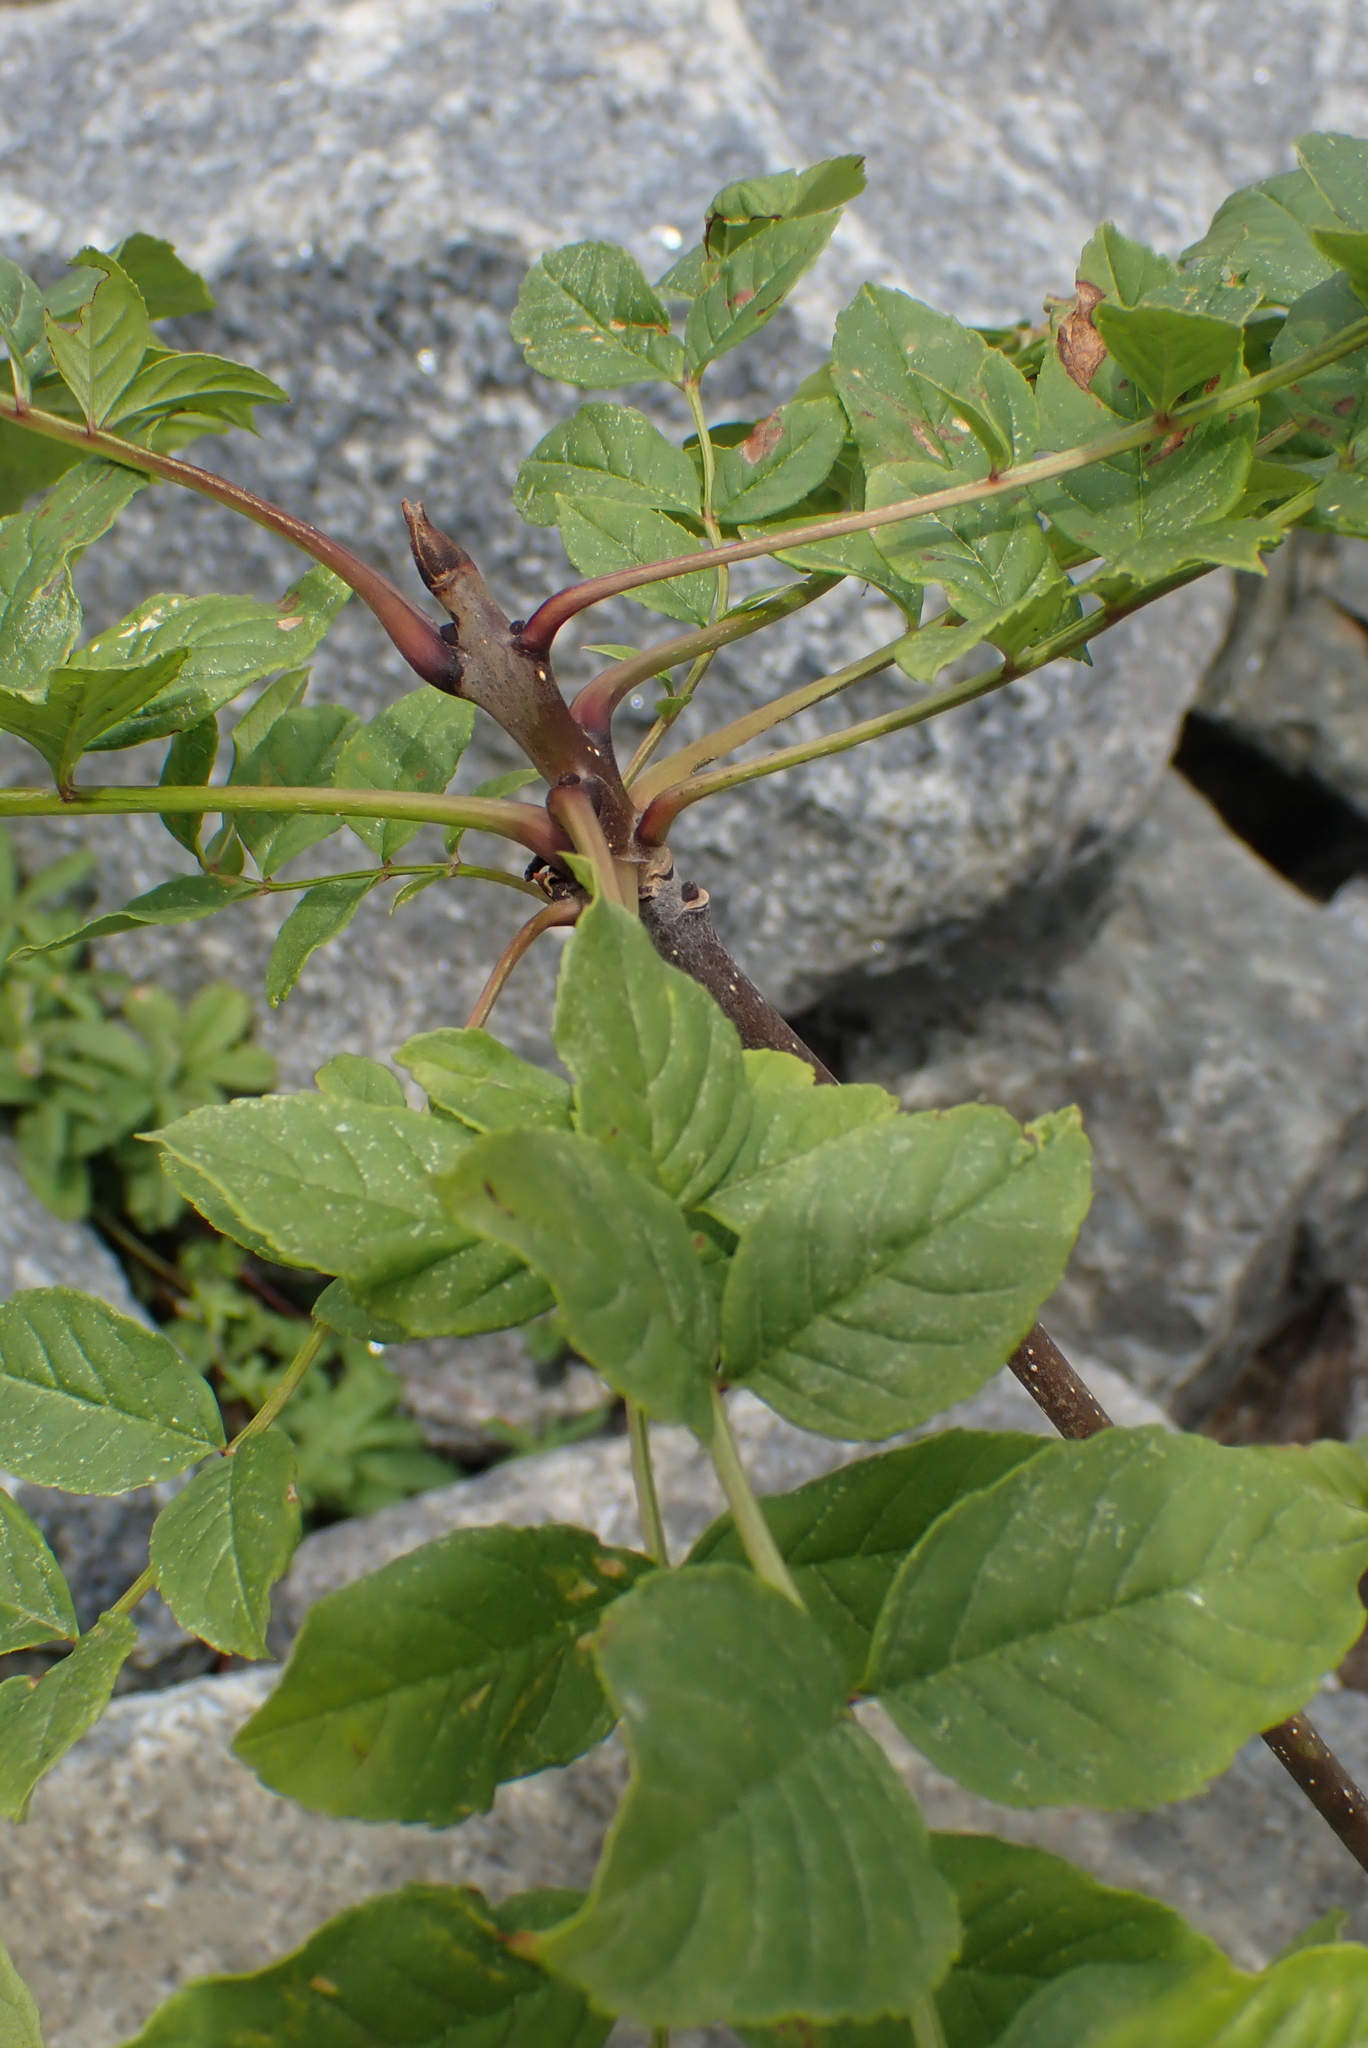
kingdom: Plantae
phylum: Tracheophyta
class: Magnoliopsida
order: Lamiales
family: Oleaceae
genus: Fraxinus
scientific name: Fraxinus excelsior
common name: European ash
